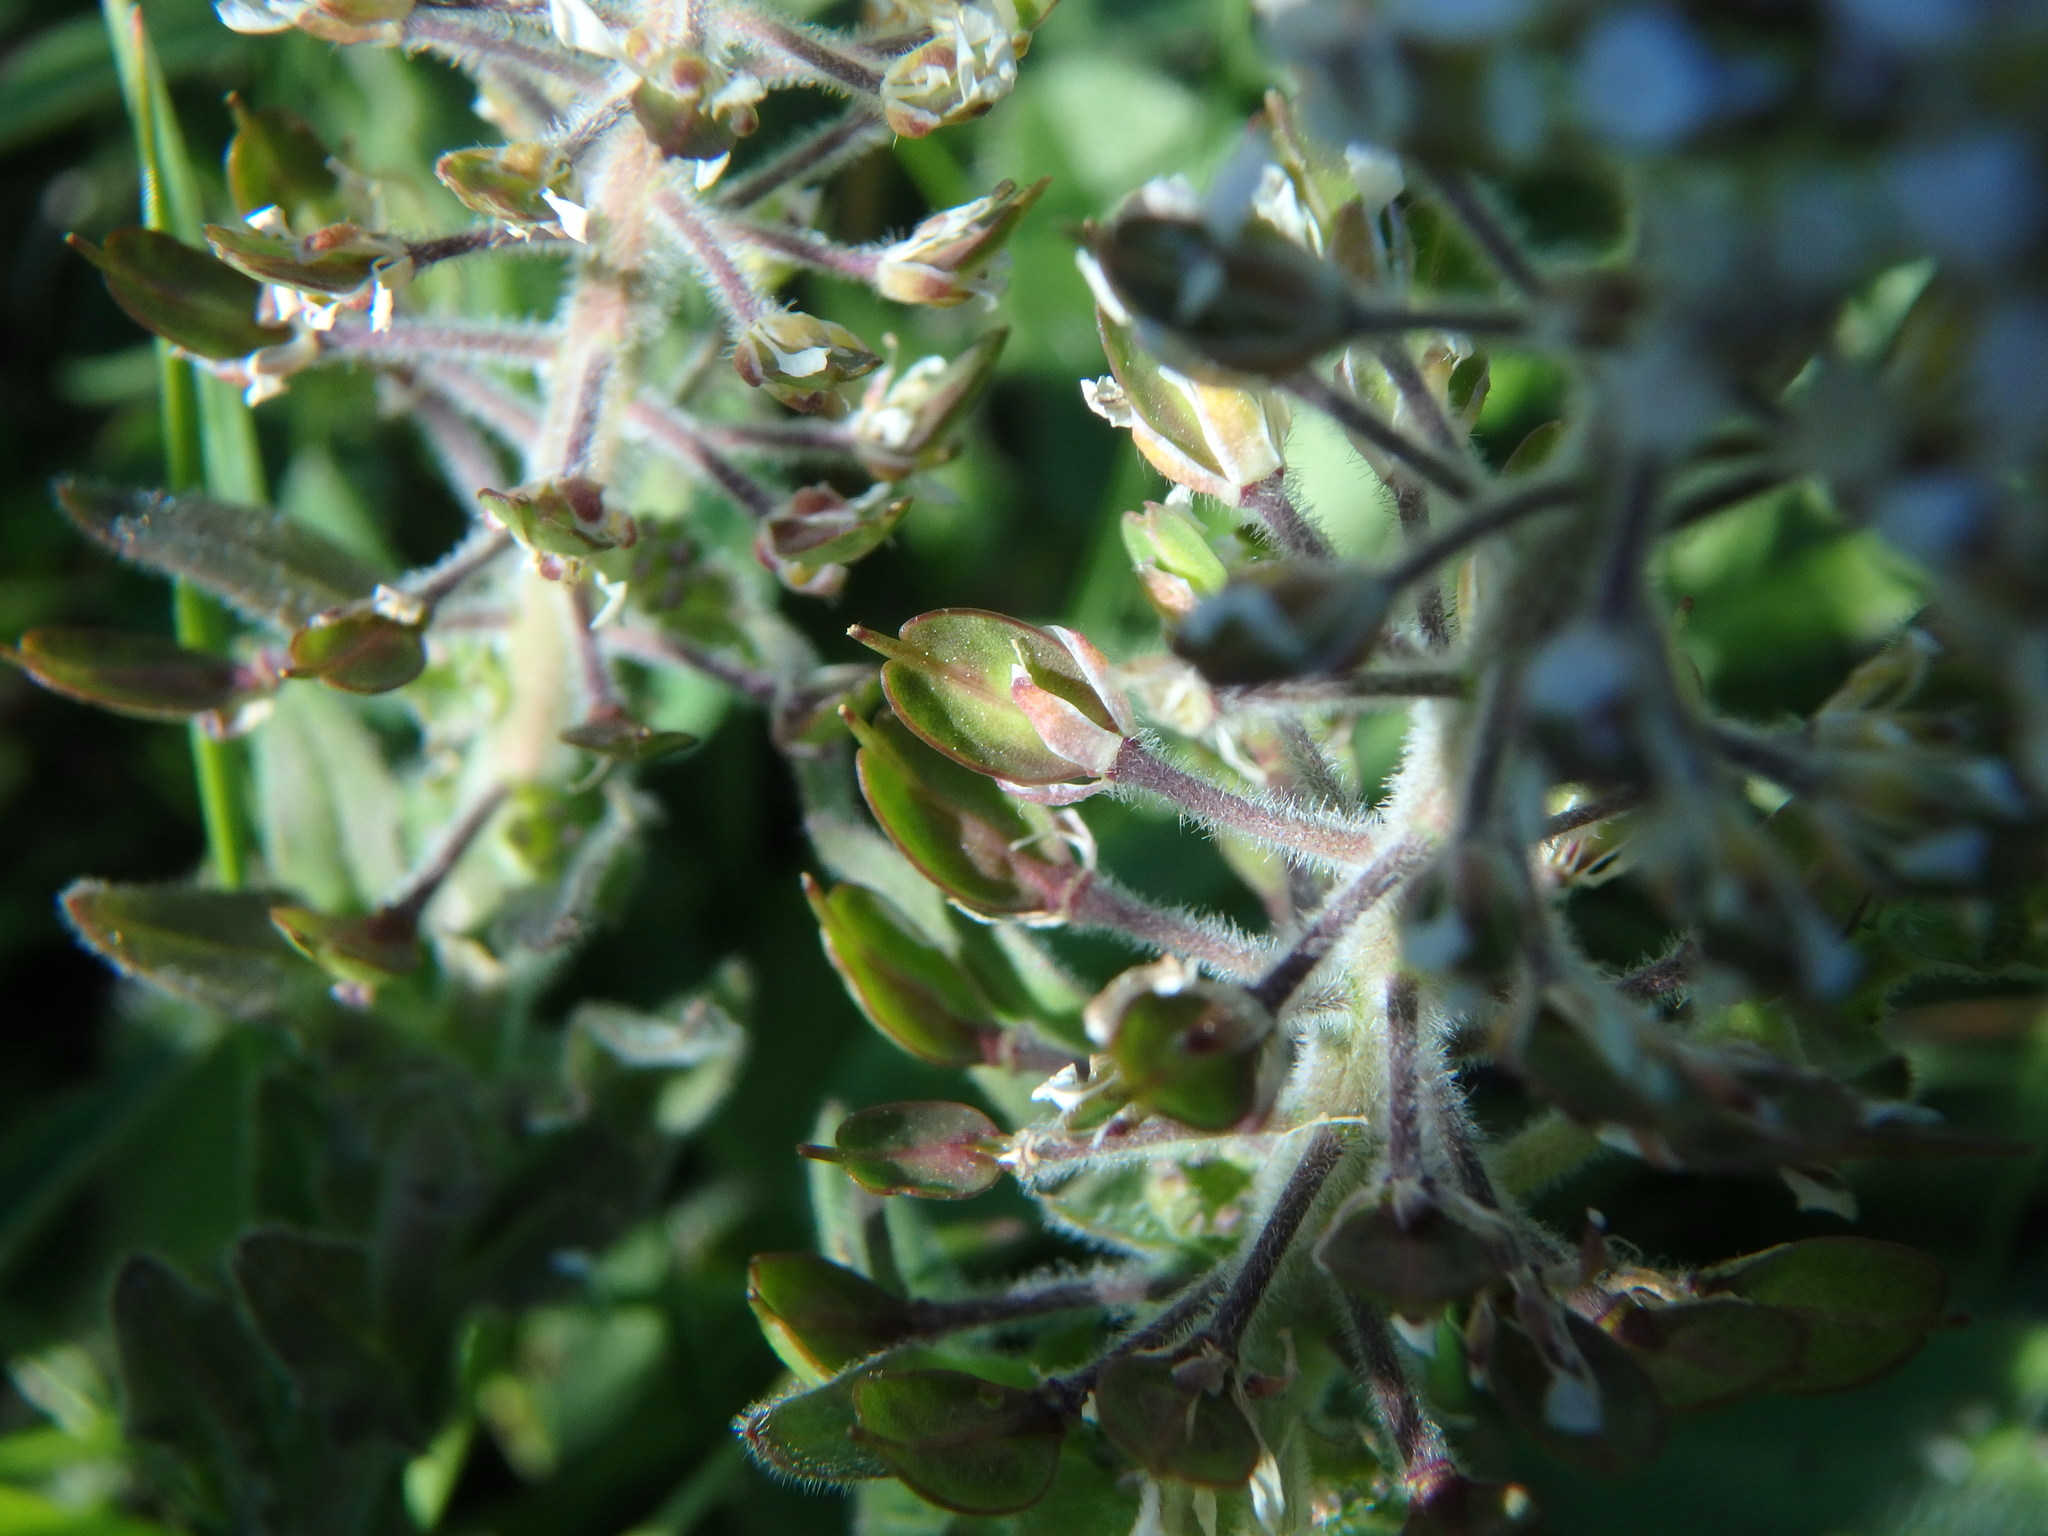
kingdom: Plantae
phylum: Tracheophyta
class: Magnoliopsida
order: Brassicales
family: Brassicaceae
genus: Lepidium
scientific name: Lepidium heterophyllum
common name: Smith's pepperwort
